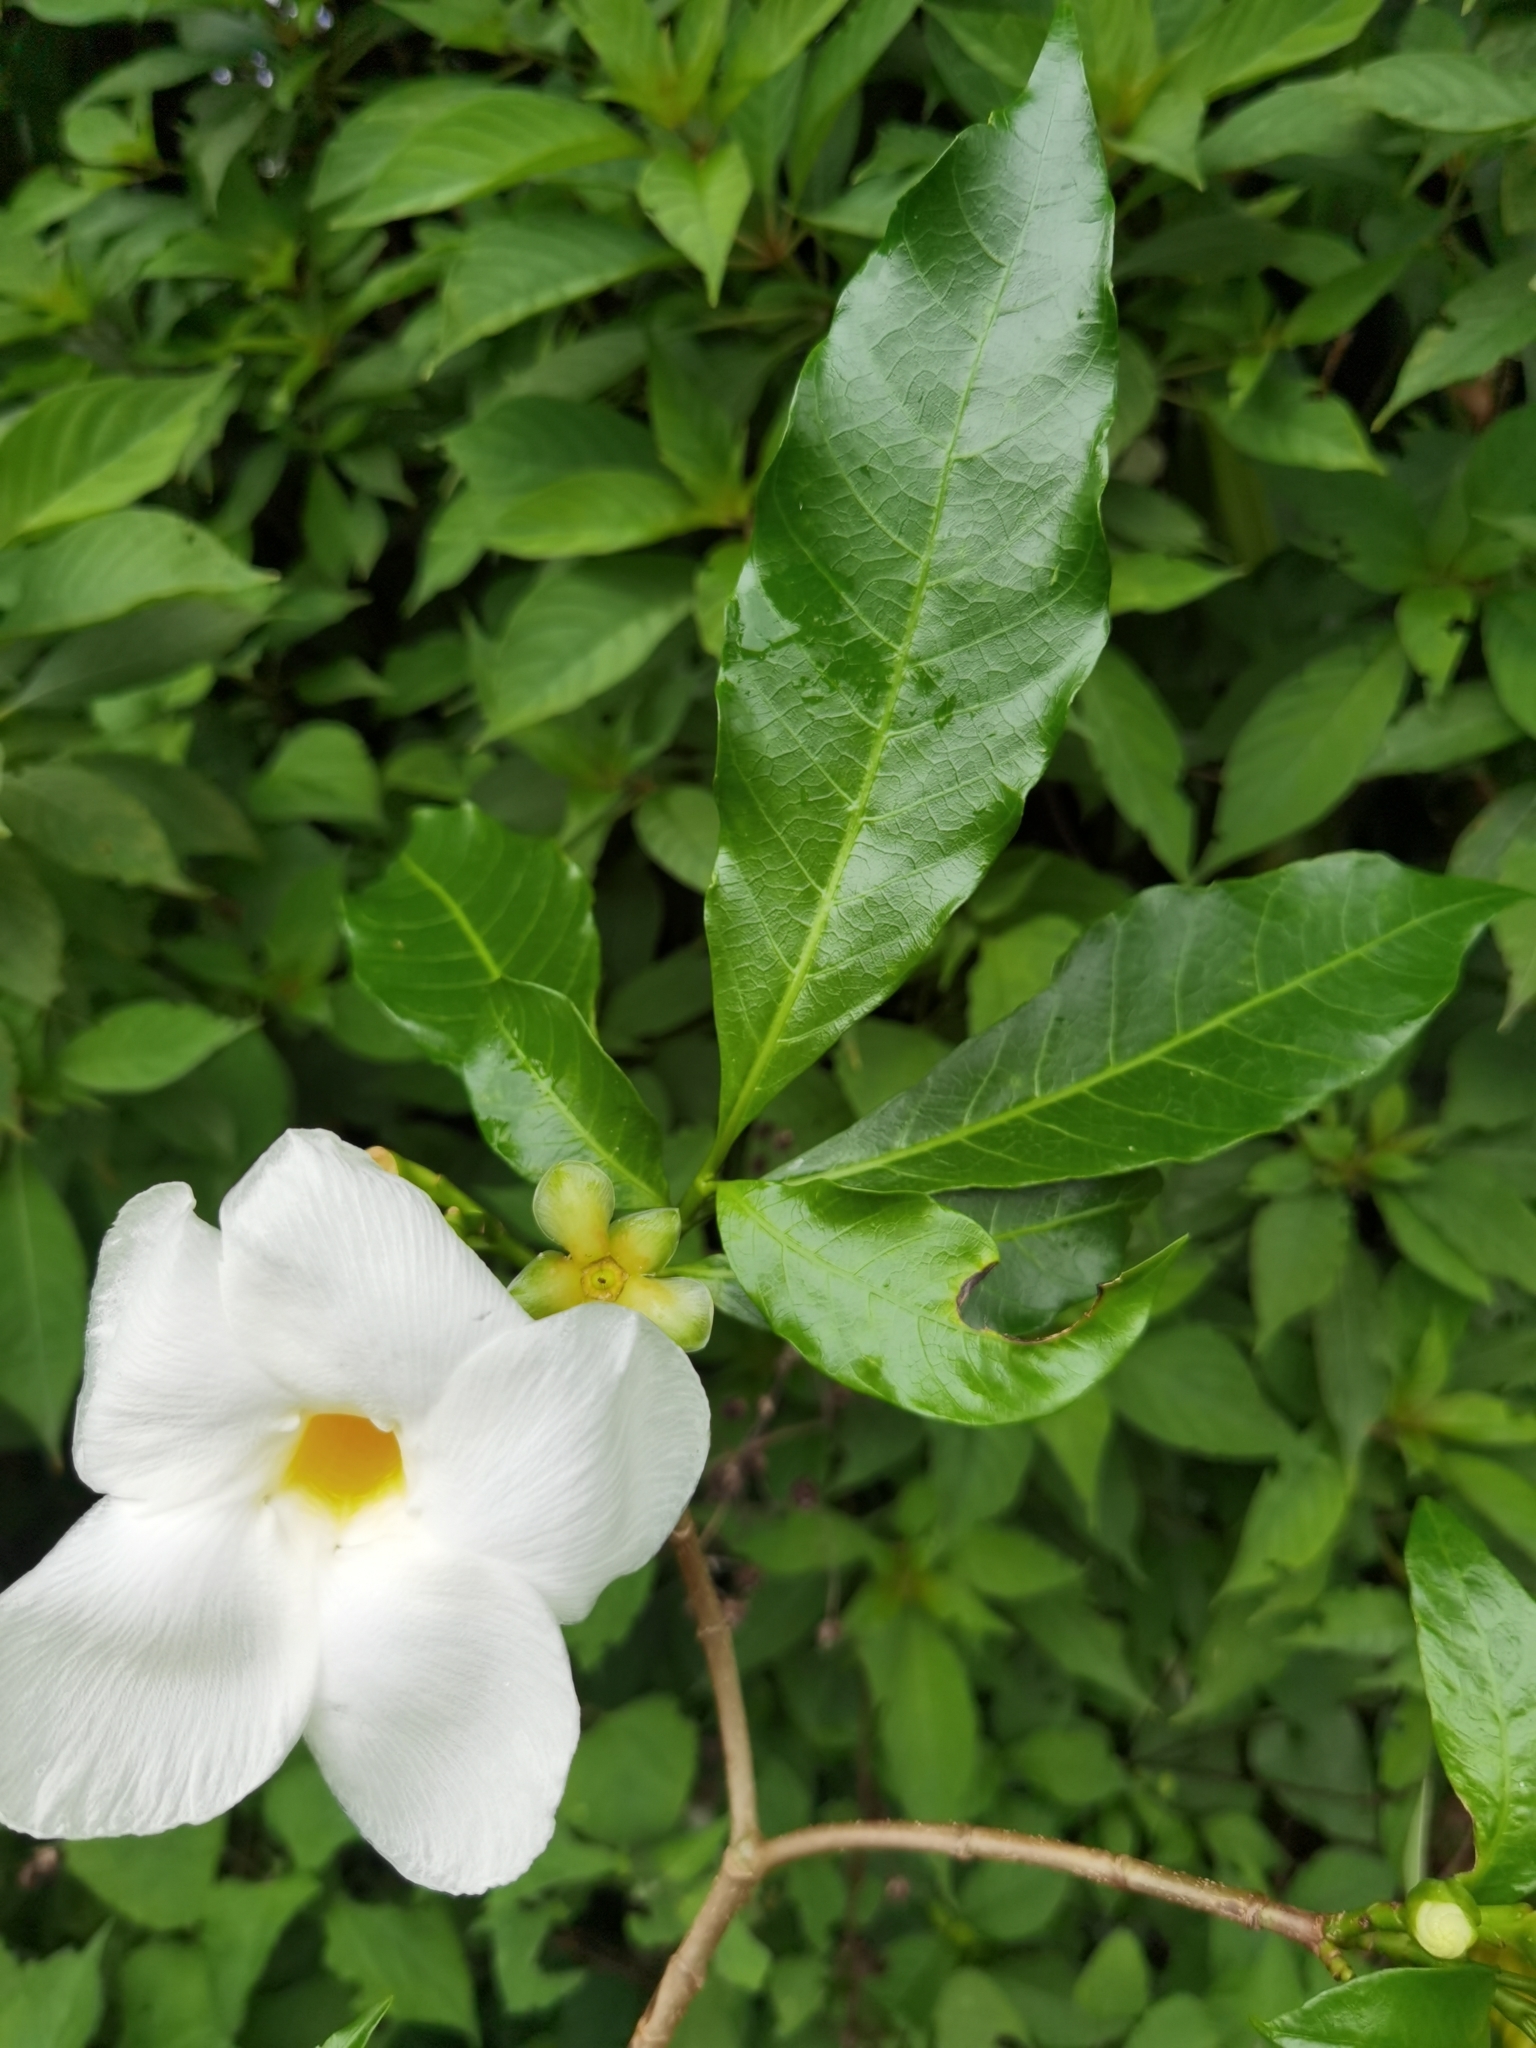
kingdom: Plantae
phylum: Tracheophyta
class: Magnoliopsida
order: Gentianales
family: Apocynaceae
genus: Tabernaemontana
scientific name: Tabernaemontana litoralis
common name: Milkwood
